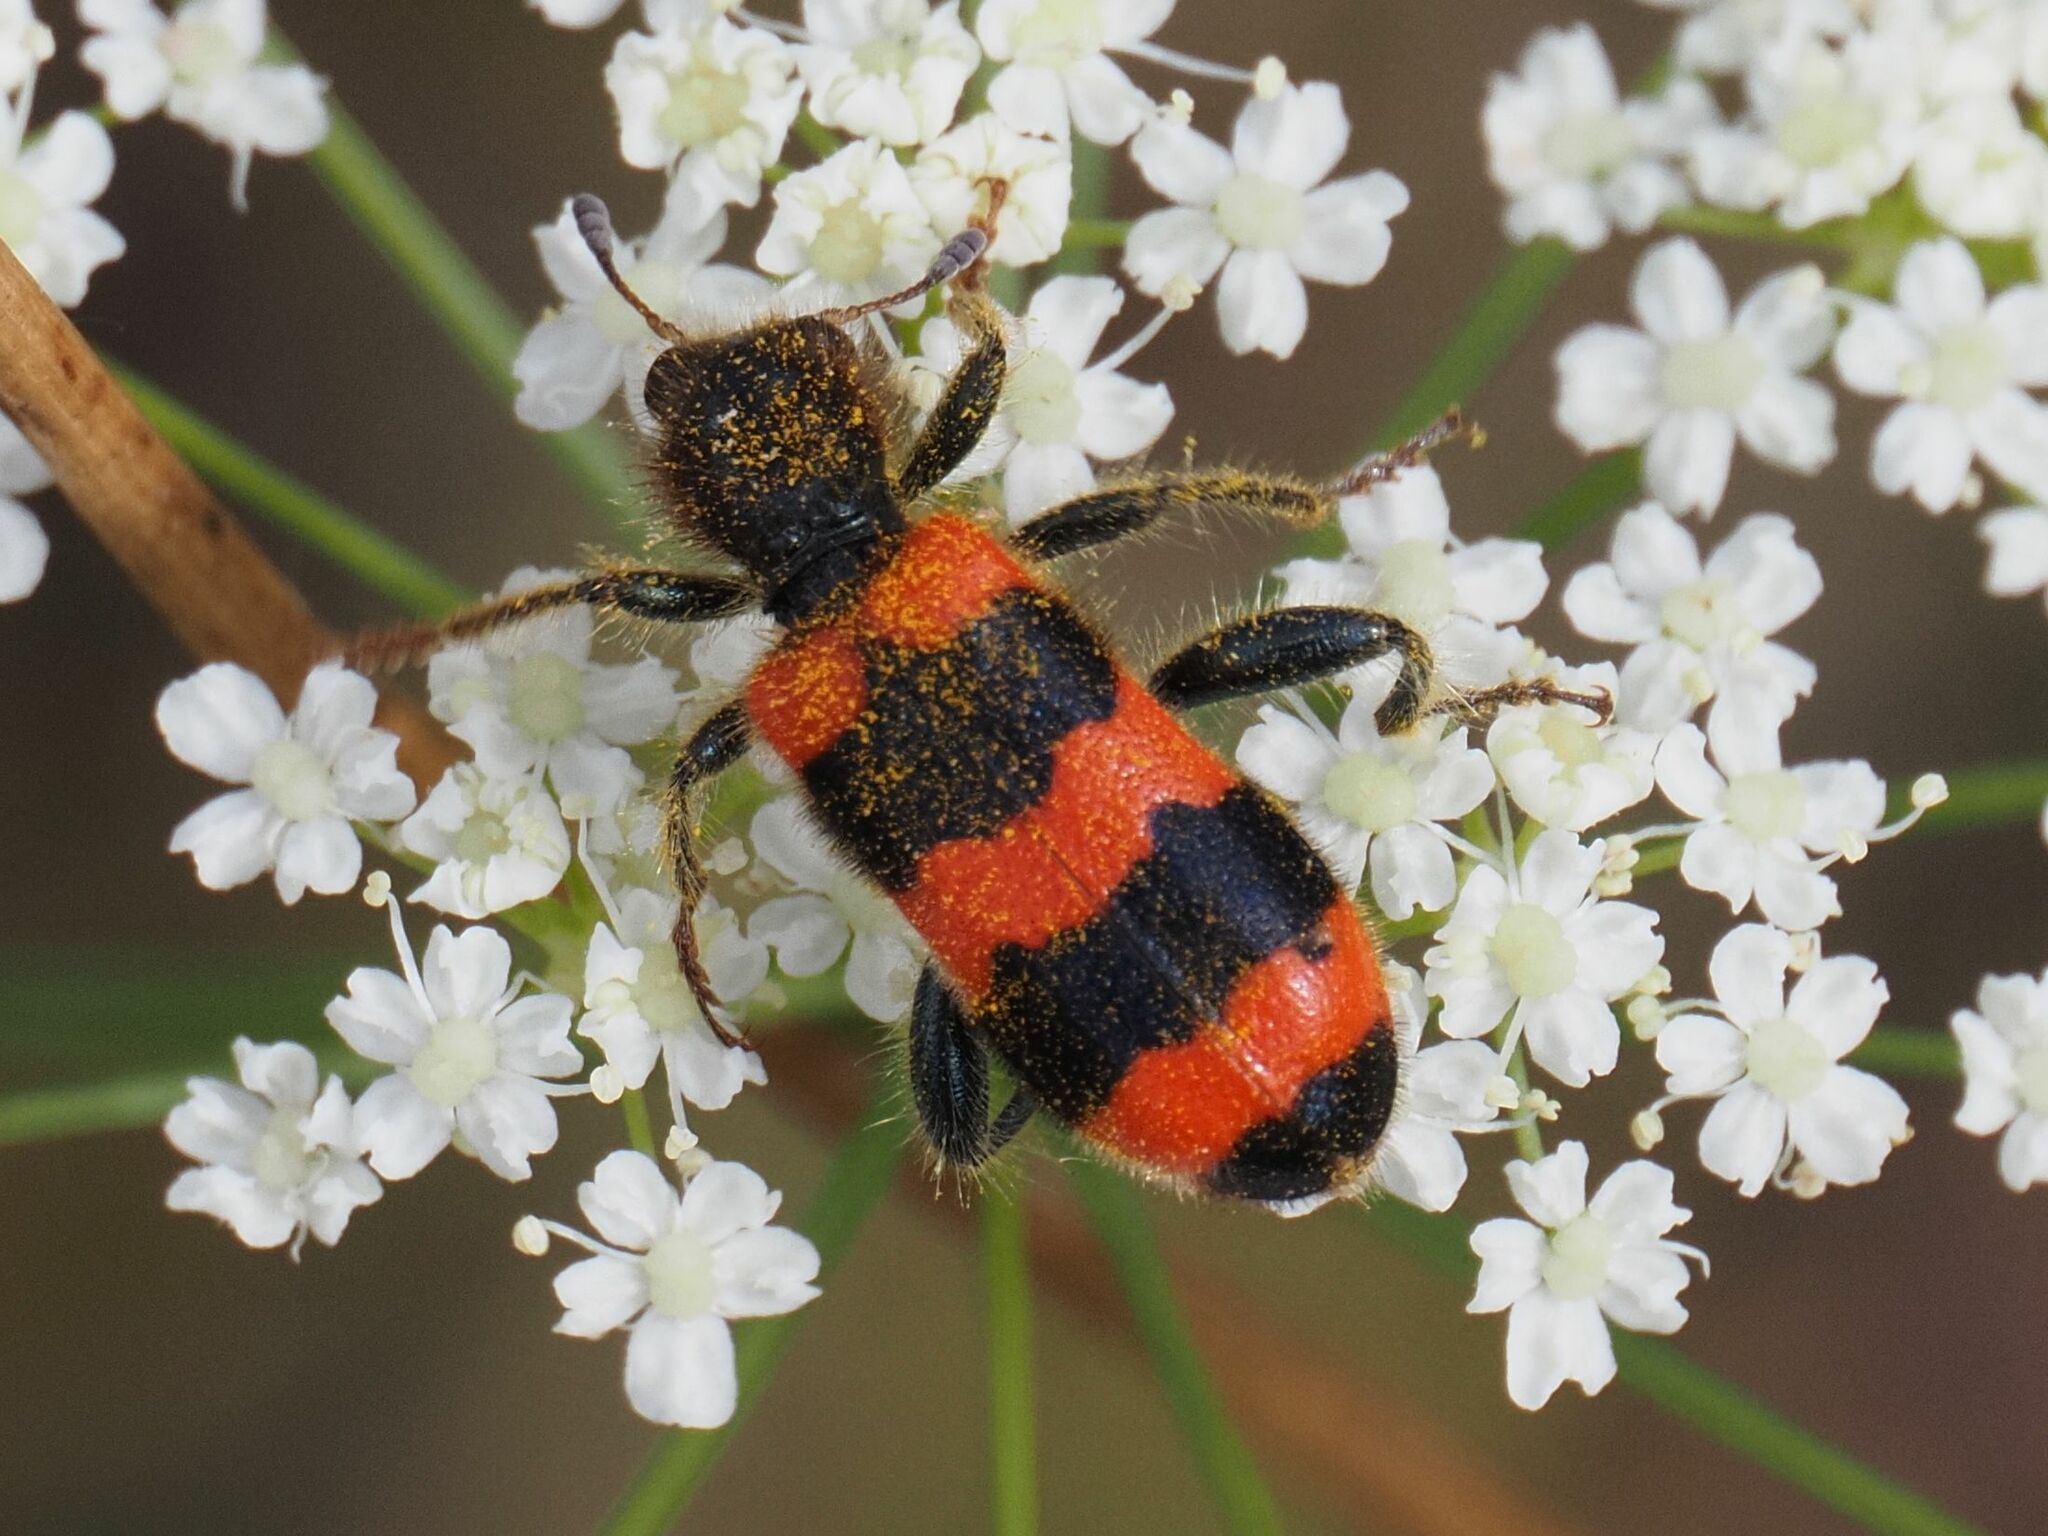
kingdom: Animalia
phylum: Arthropoda
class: Insecta
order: Coleoptera
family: Cleridae
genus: Trichodes
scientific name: Trichodes apiarius
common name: Bee-eating beetle
